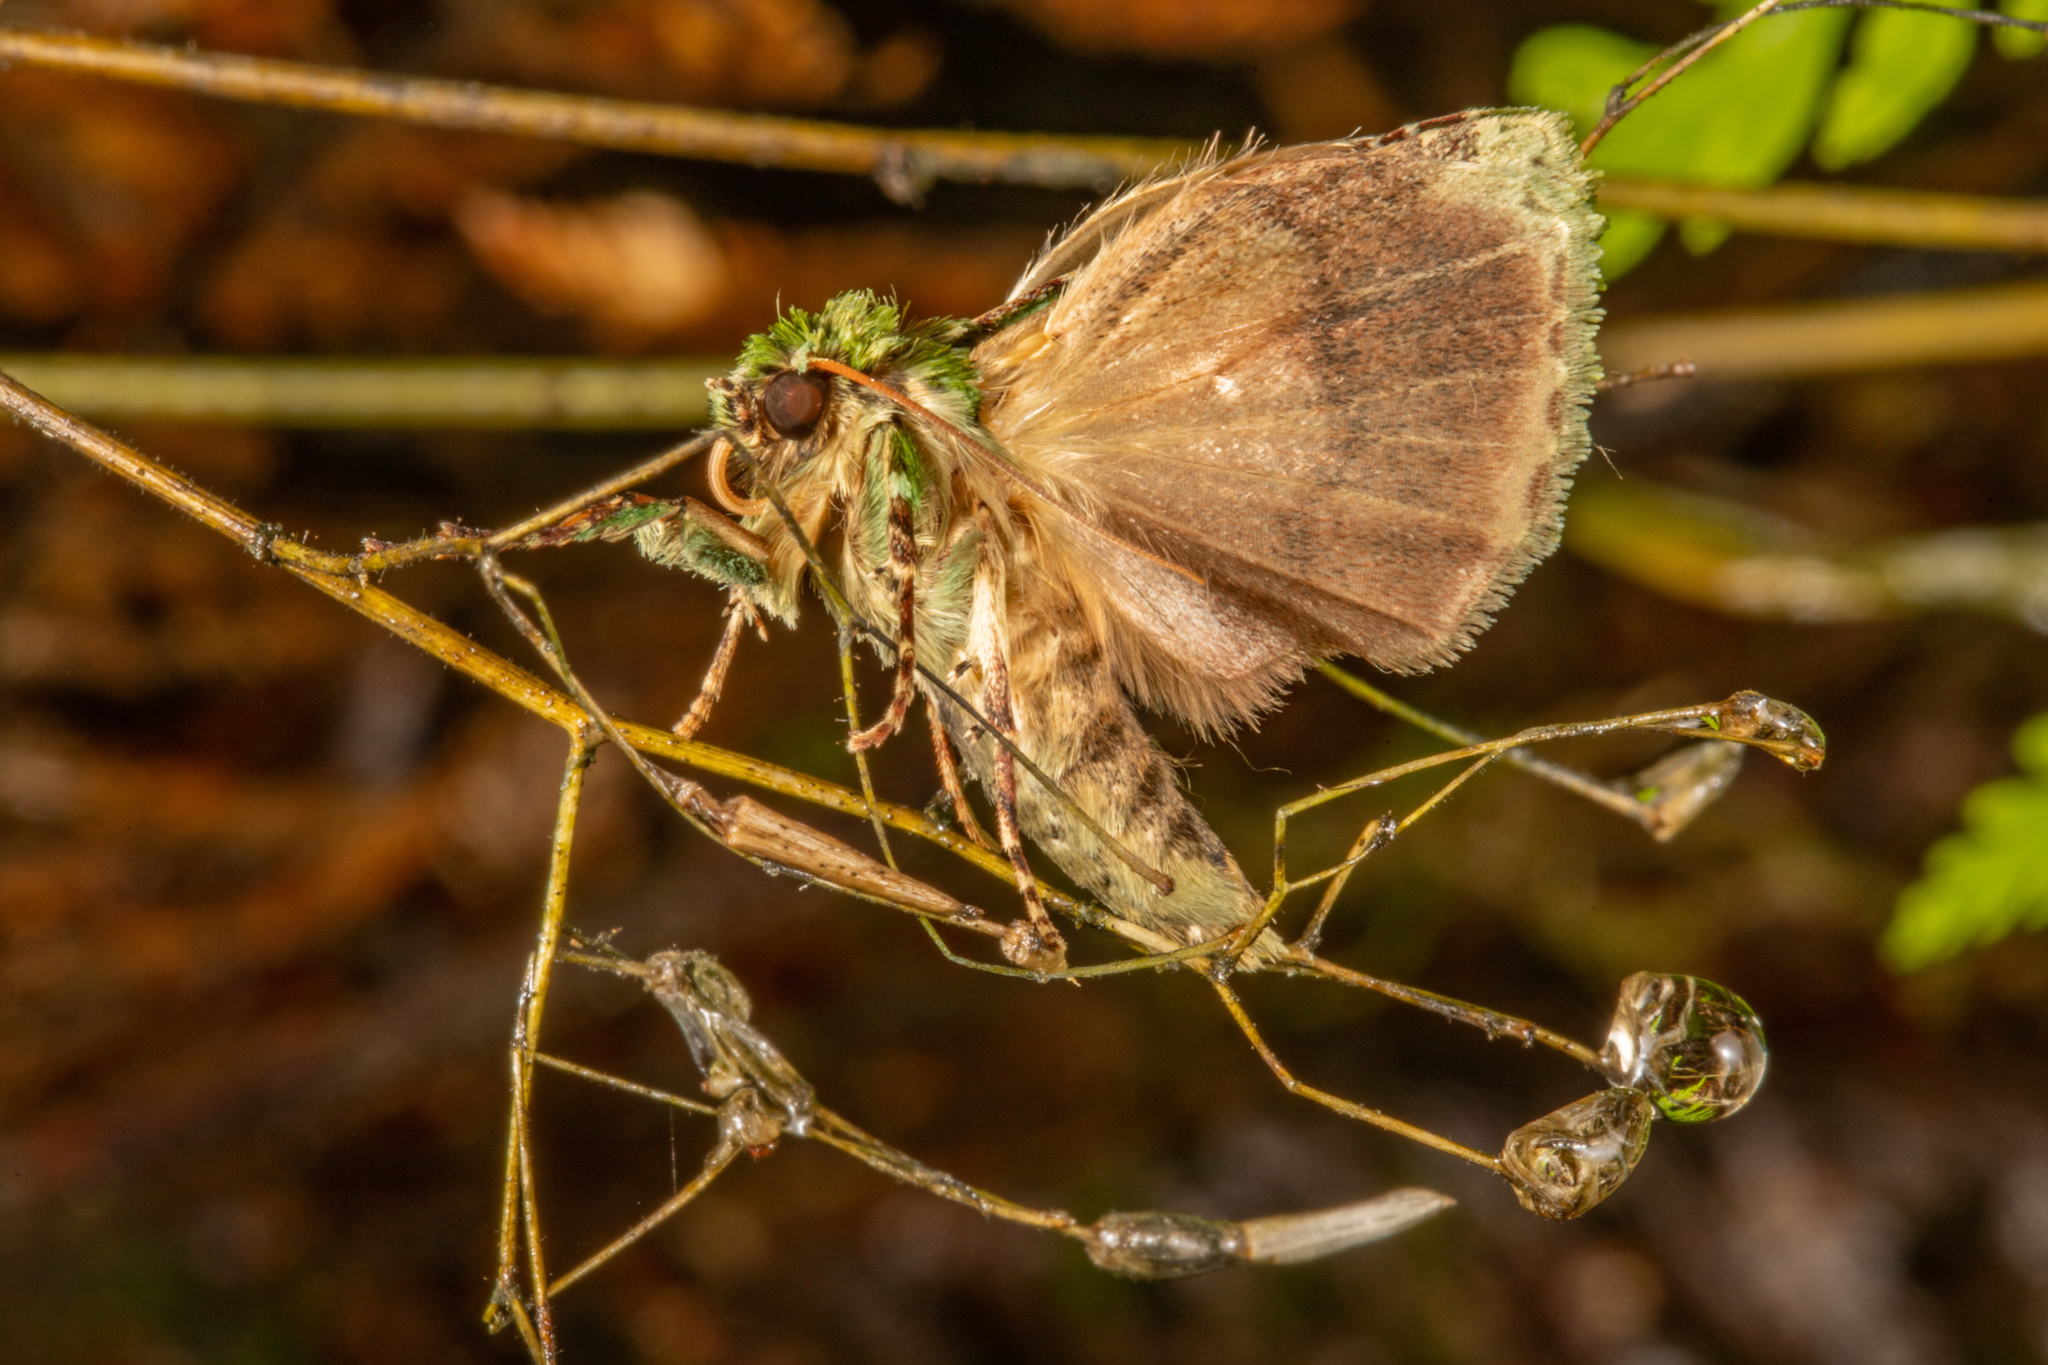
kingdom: Animalia
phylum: Arthropoda
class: Insecta
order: Lepidoptera
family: Noctuidae
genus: Feredayia
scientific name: Feredayia grammosa
